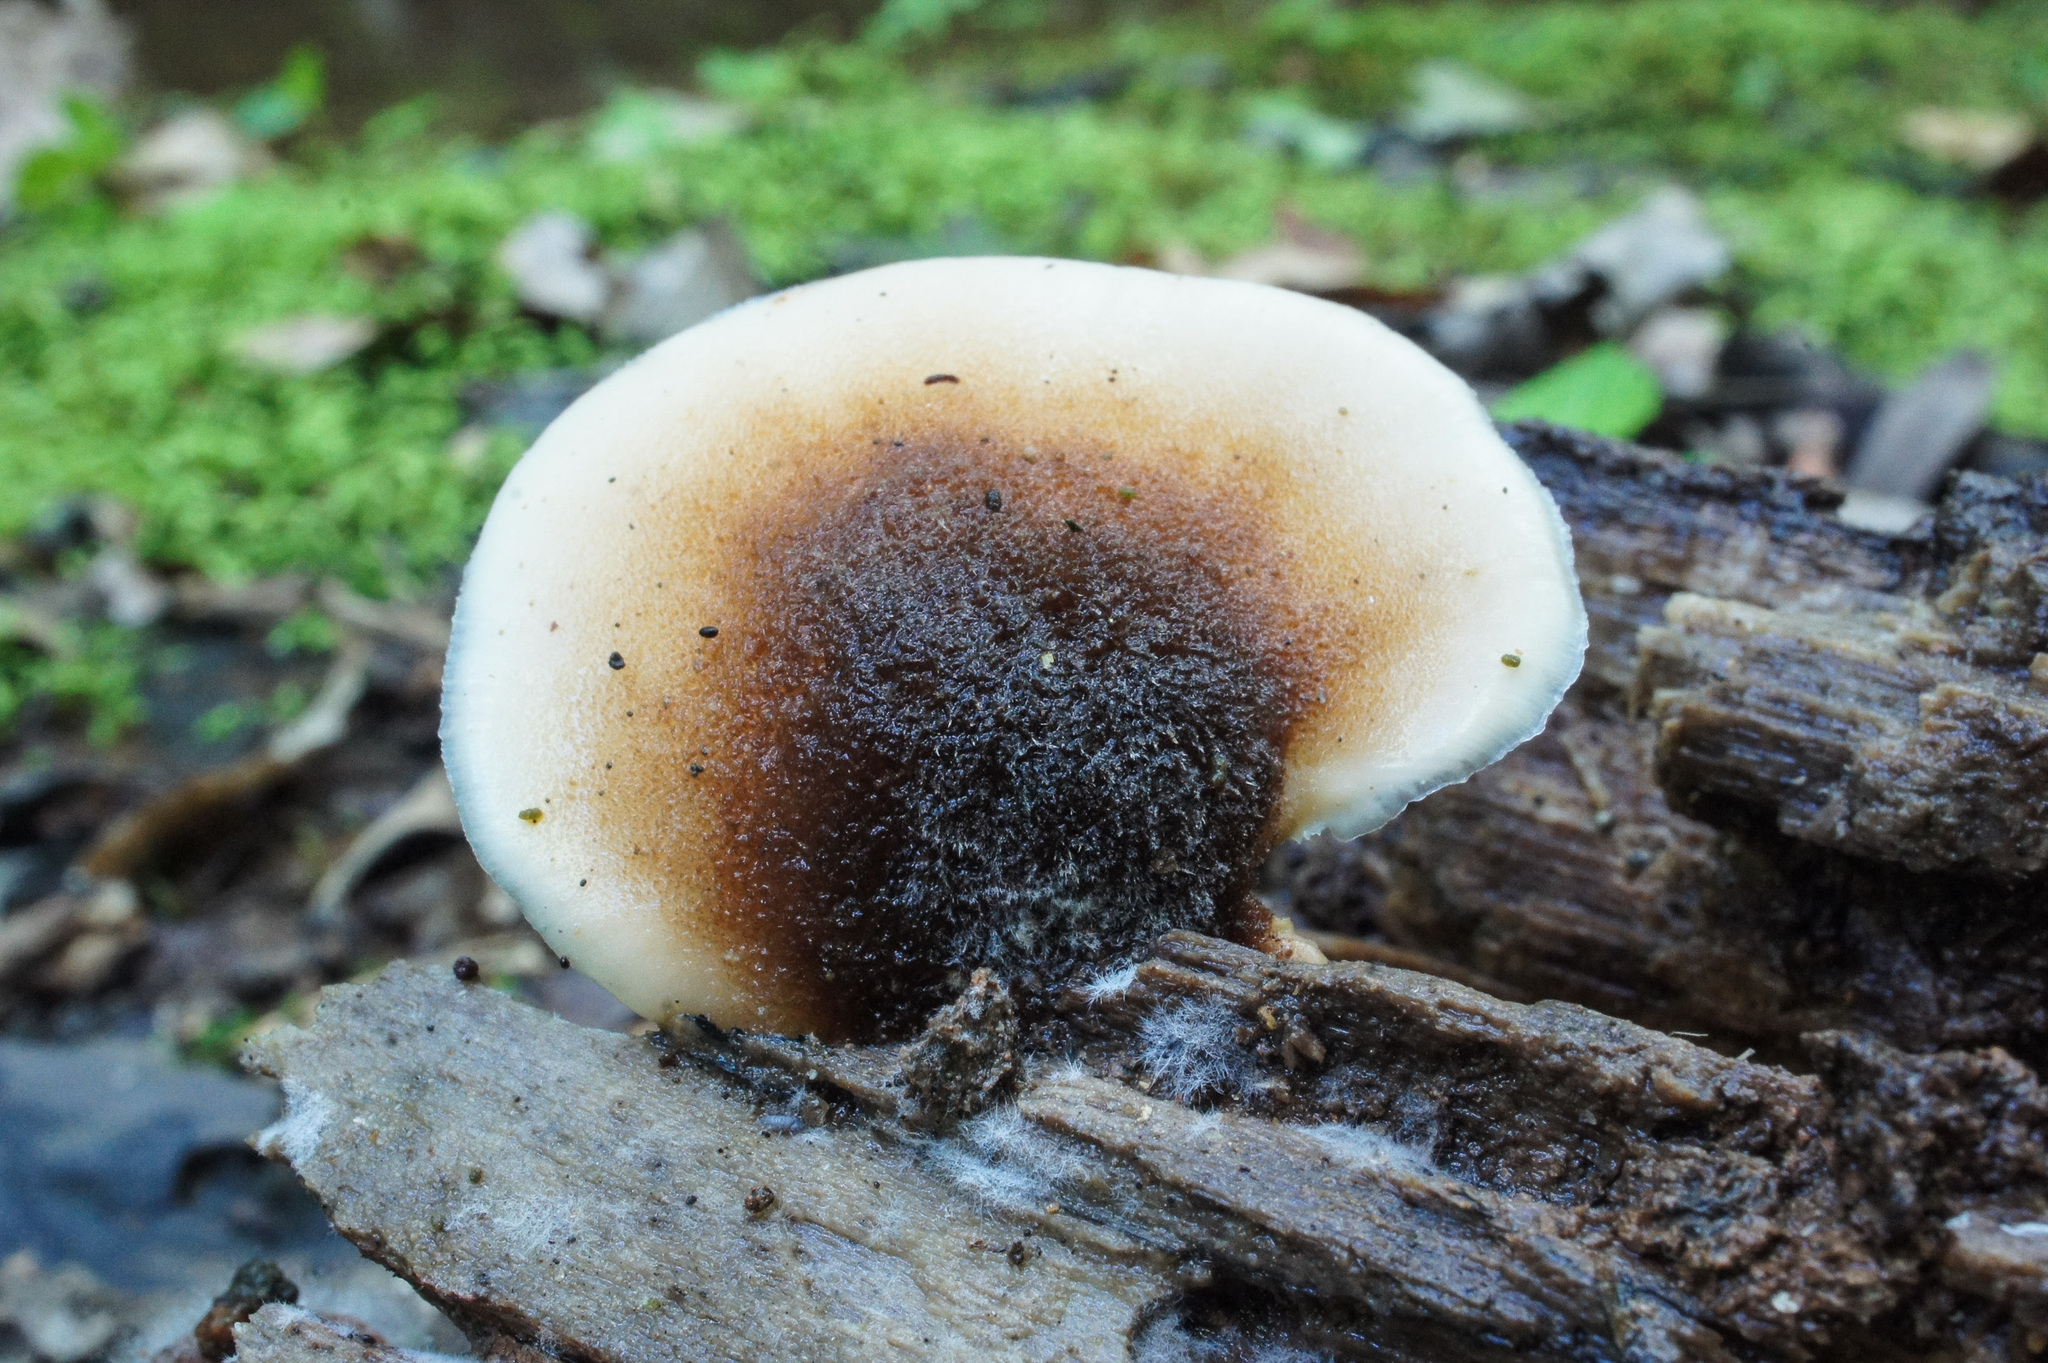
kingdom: Fungi
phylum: Basidiomycota
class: Agaricomycetes
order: Russulales
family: Auriscalpiaceae
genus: Lentinellus
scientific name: Lentinellus ursinus
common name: Bear lentinus
